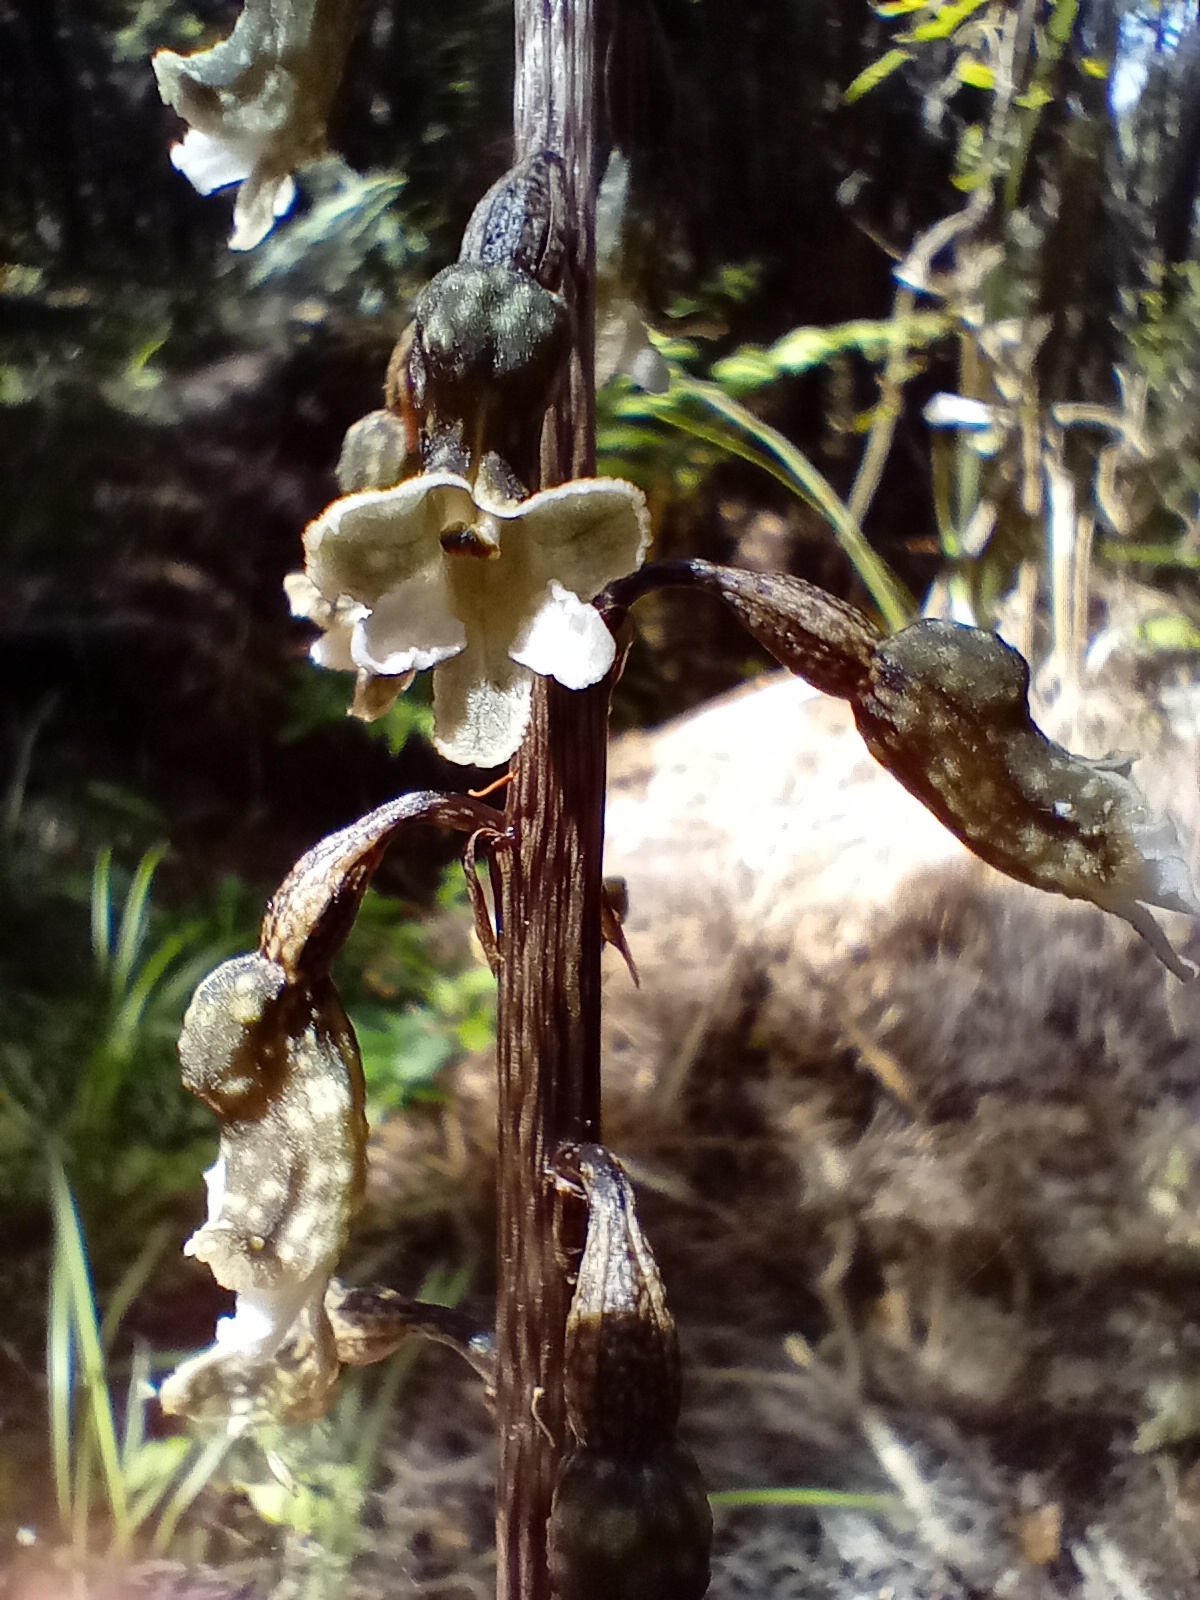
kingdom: Plantae
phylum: Tracheophyta
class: Liliopsida
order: Asparagales
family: Orchidaceae
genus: Gastrodia
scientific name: Gastrodia cunninghamii
